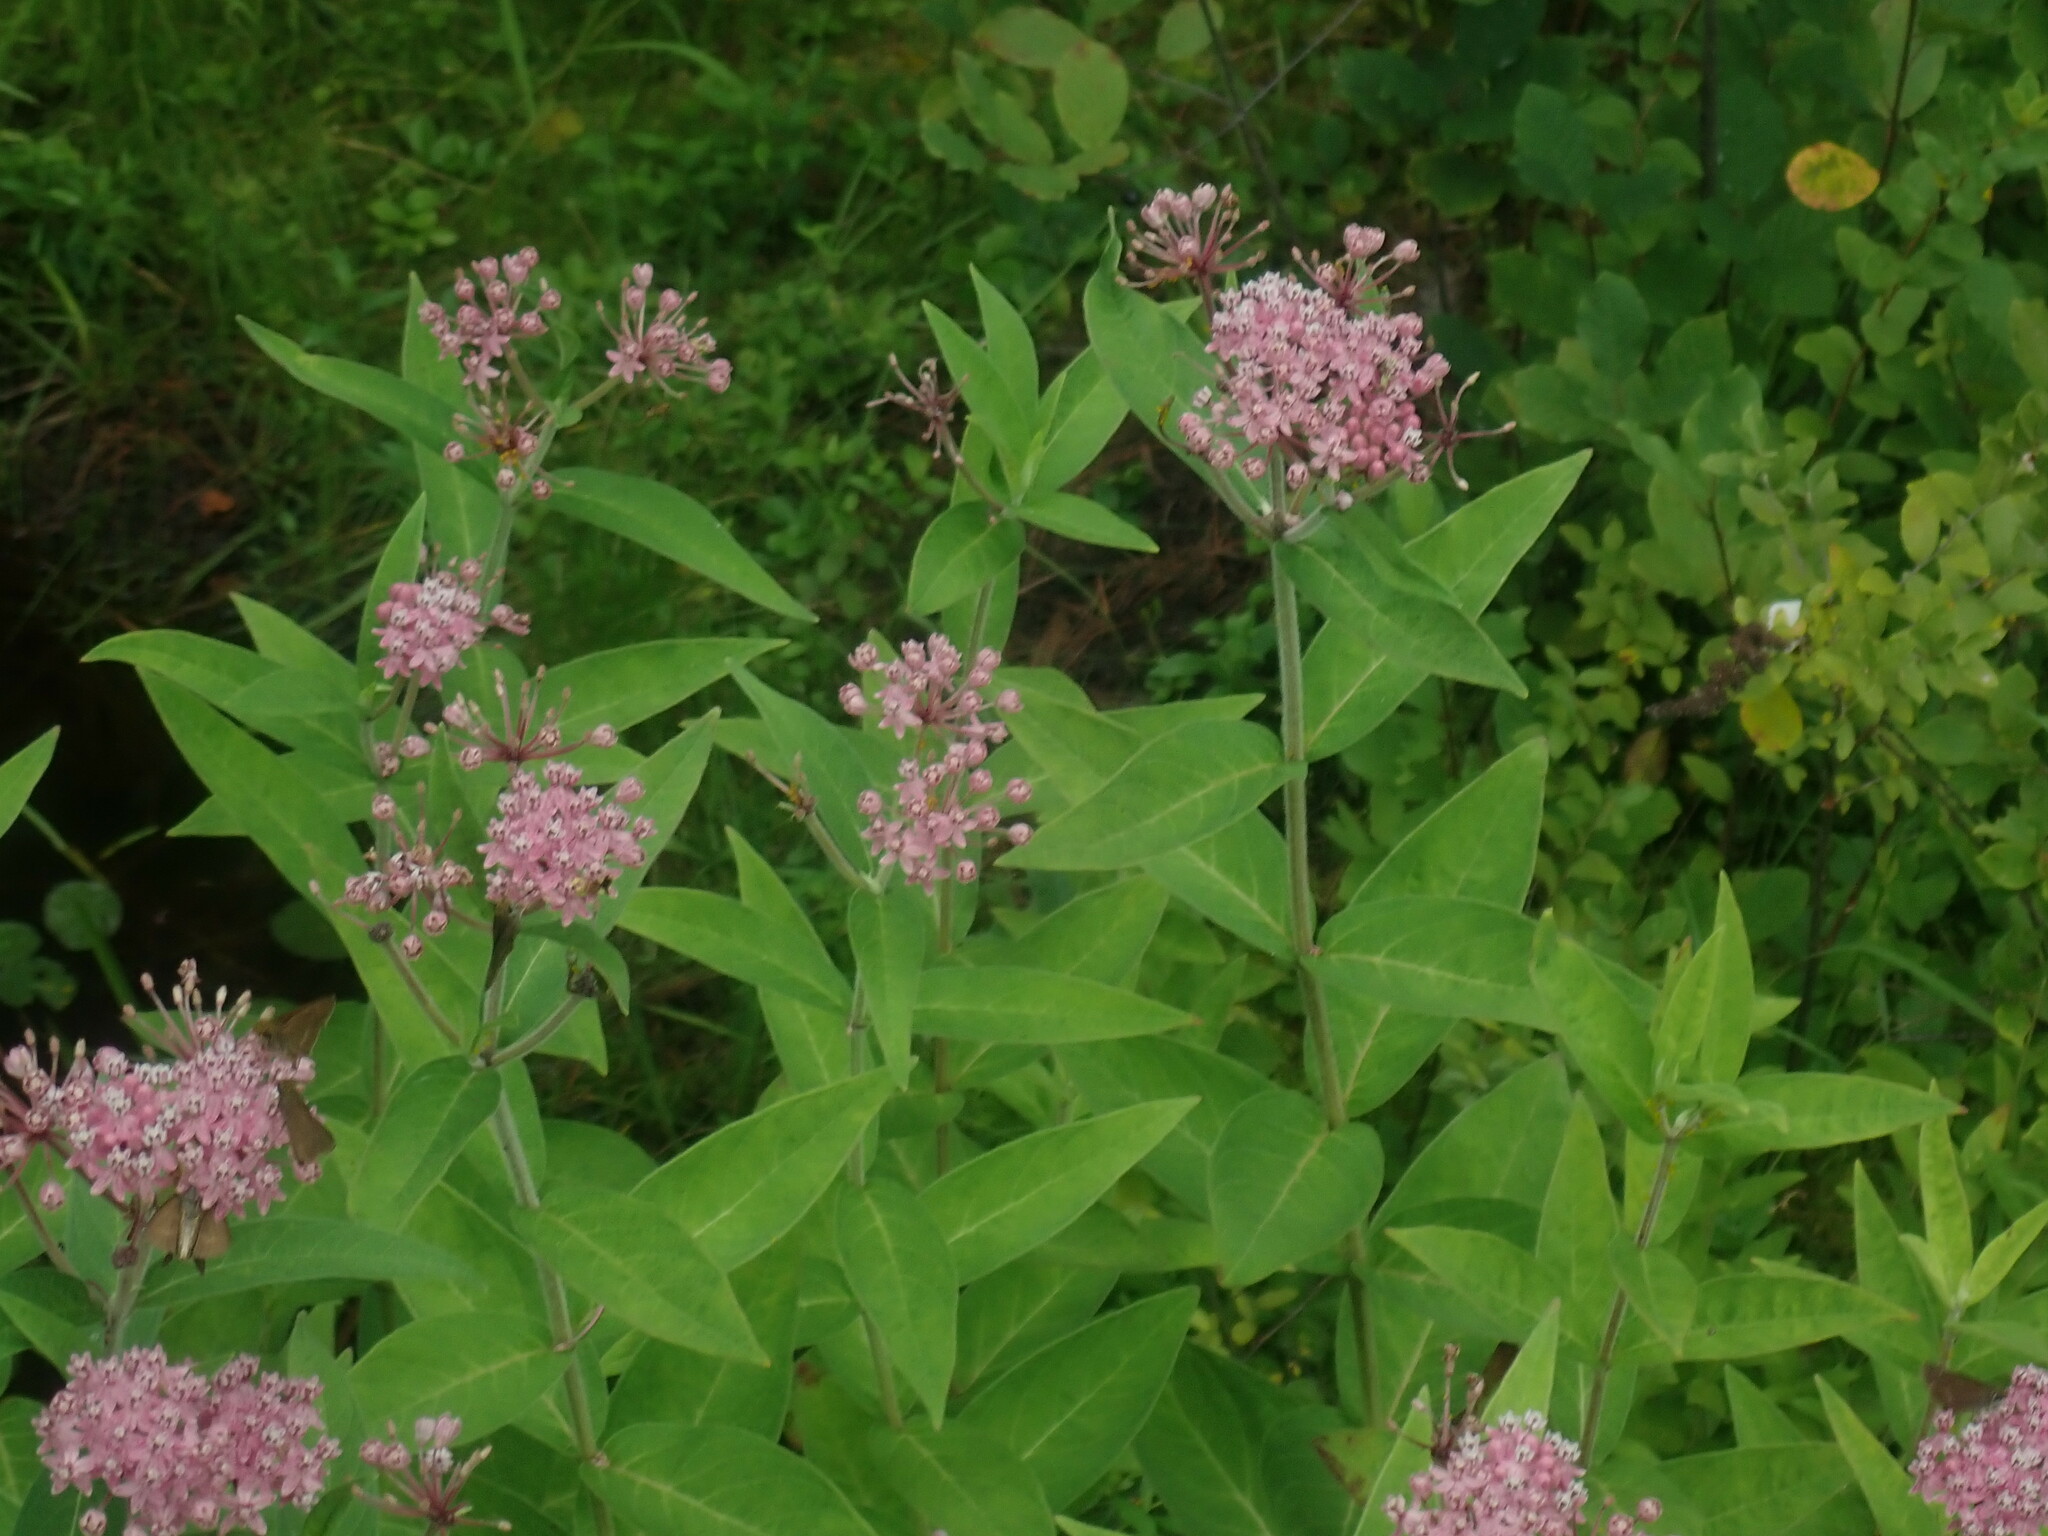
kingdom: Plantae
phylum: Tracheophyta
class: Magnoliopsida
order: Gentianales
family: Apocynaceae
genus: Asclepias
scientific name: Asclepias incarnata
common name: Swamp milkweed
